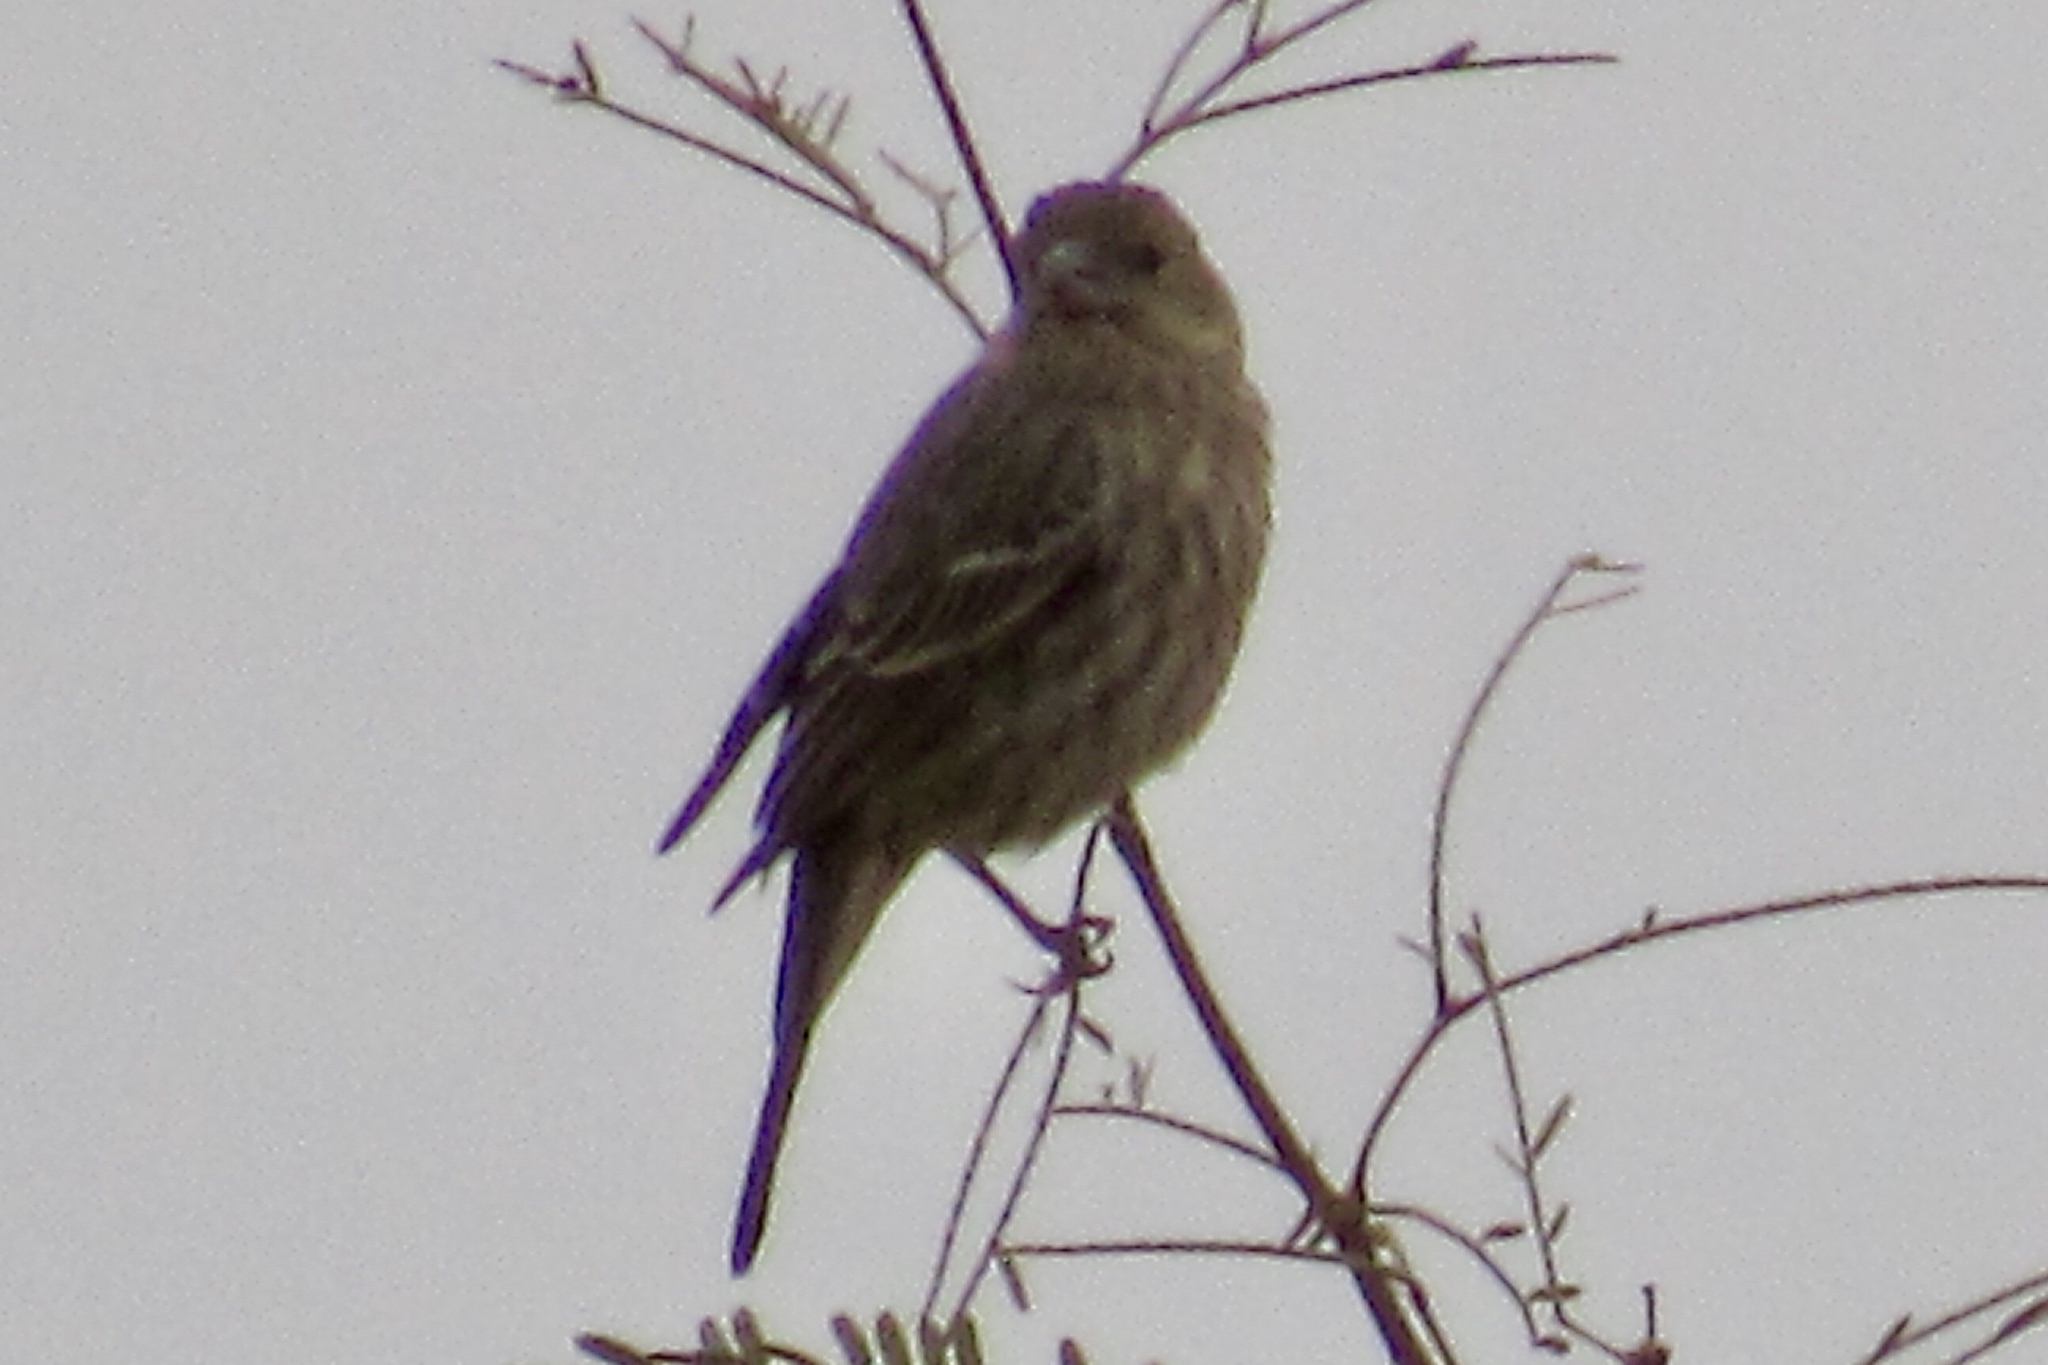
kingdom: Animalia
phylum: Chordata
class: Aves
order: Passeriformes
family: Fringillidae
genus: Haemorhous
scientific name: Haemorhous mexicanus
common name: House finch
